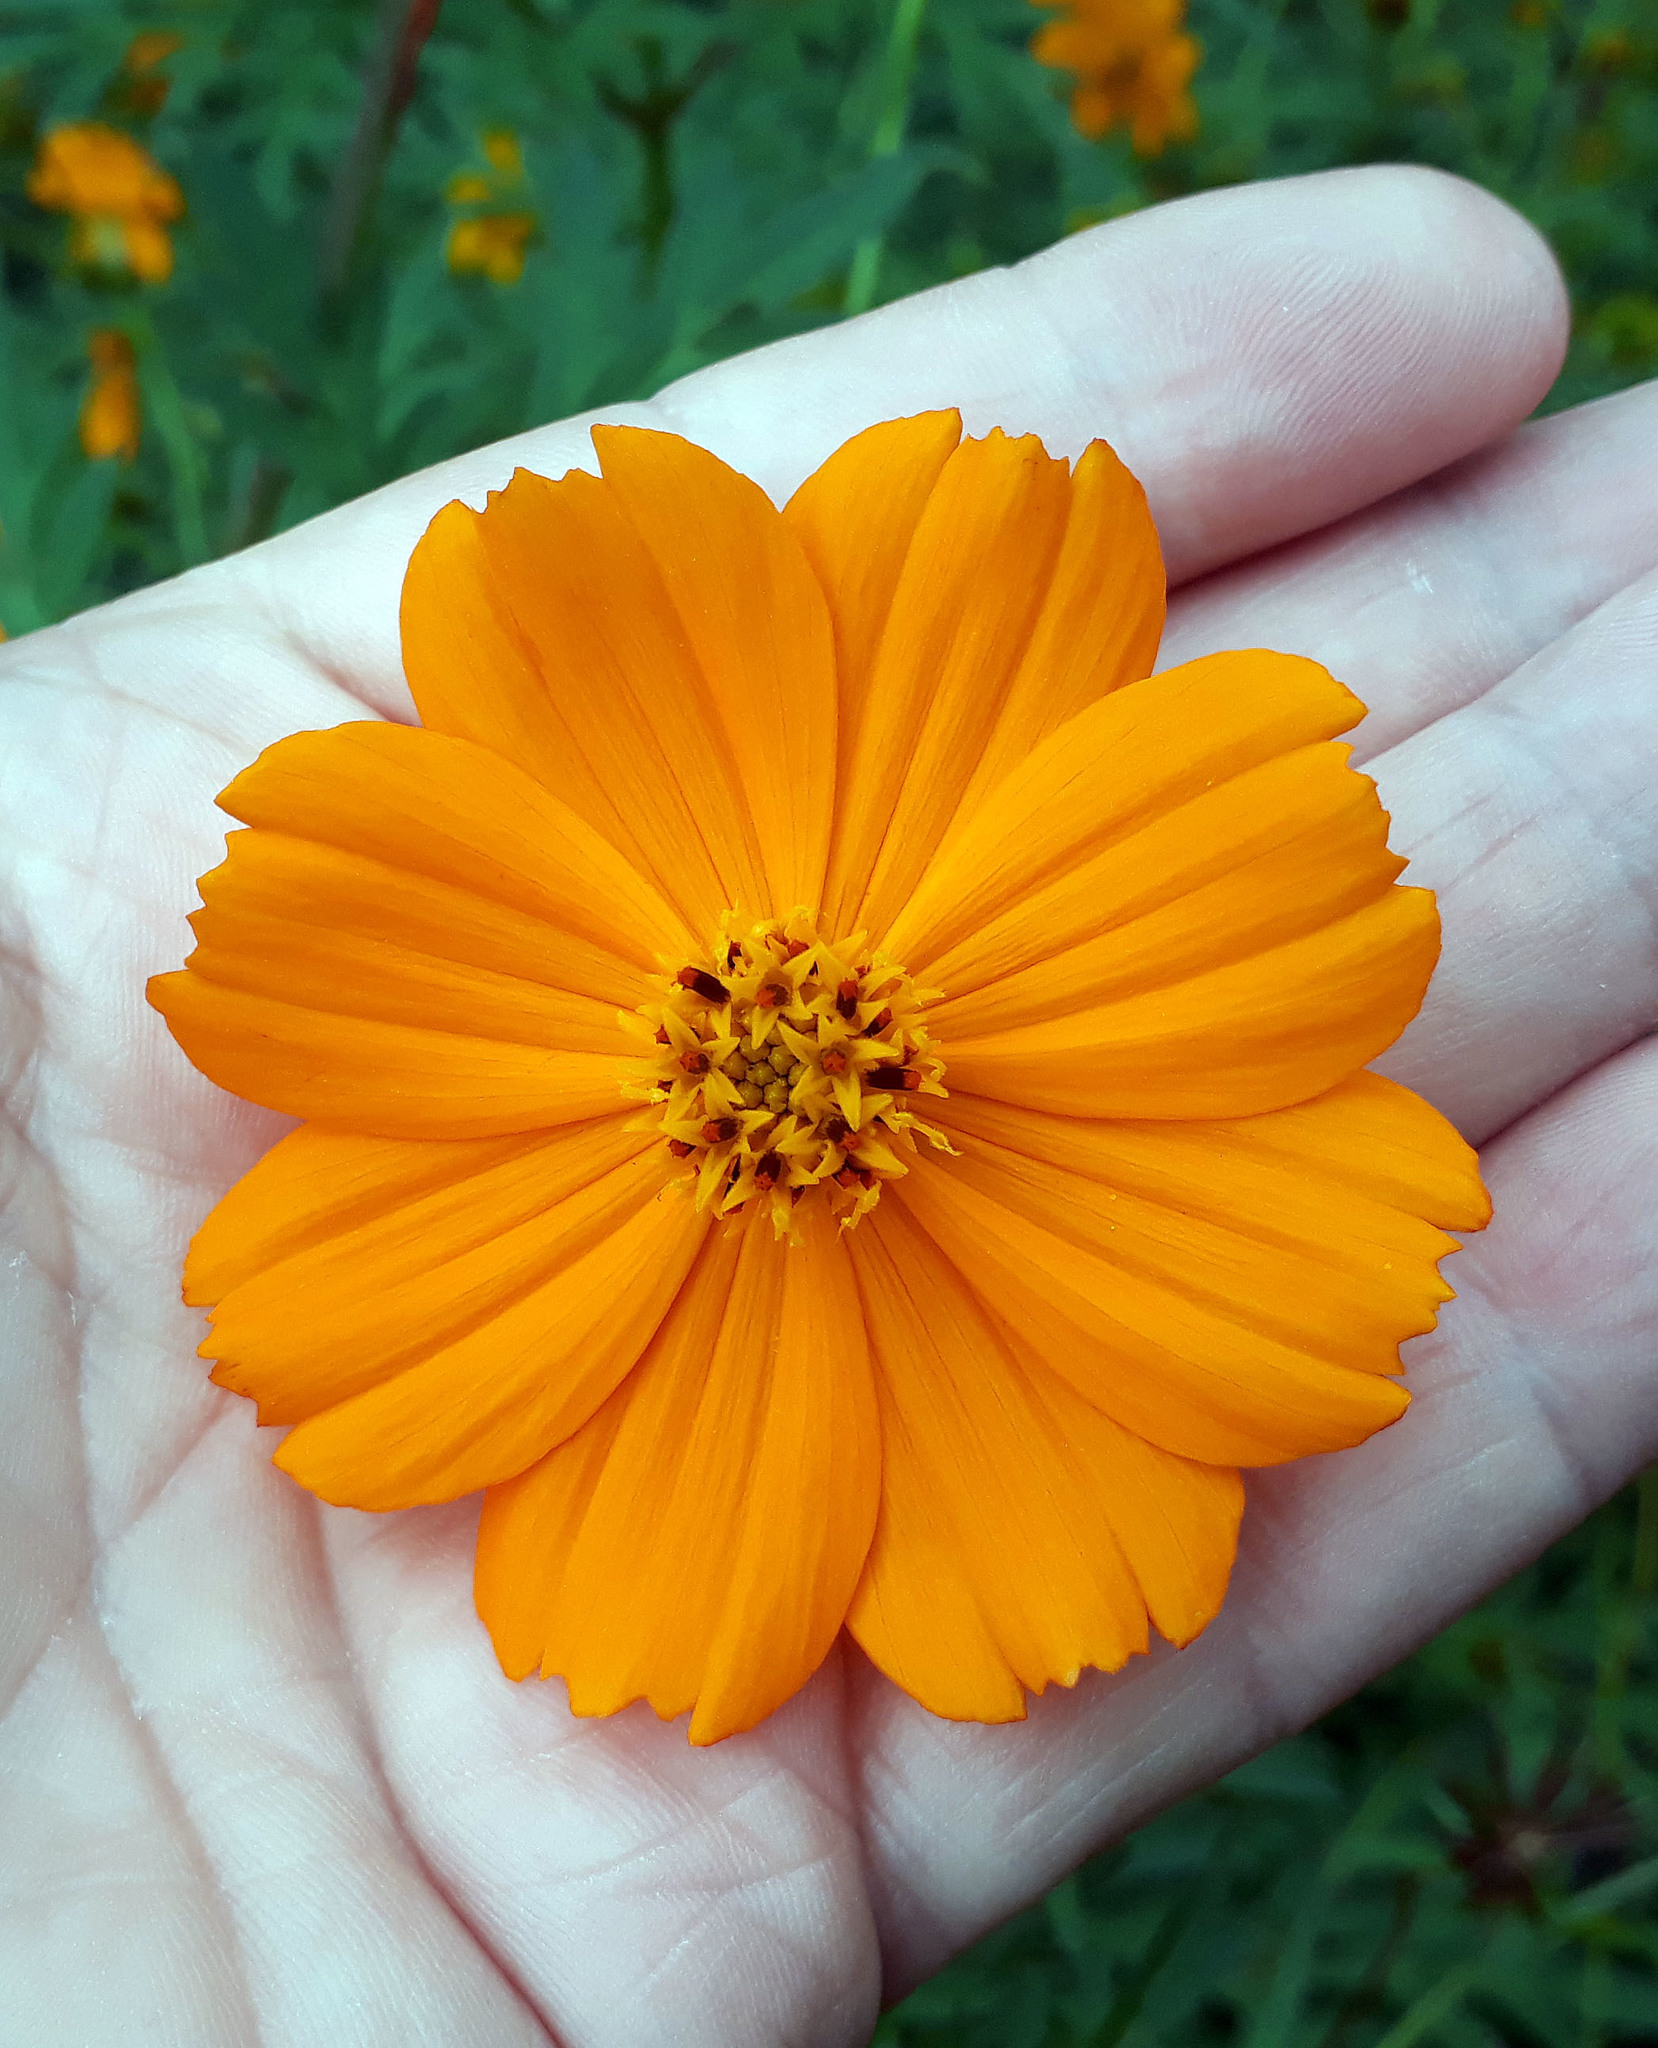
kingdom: Plantae
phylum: Tracheophyta
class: Magnoliopsida
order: Asterales
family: Asteraceae
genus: Cosmos
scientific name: Cosmos sulphureus
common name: Sulphur cosmos
